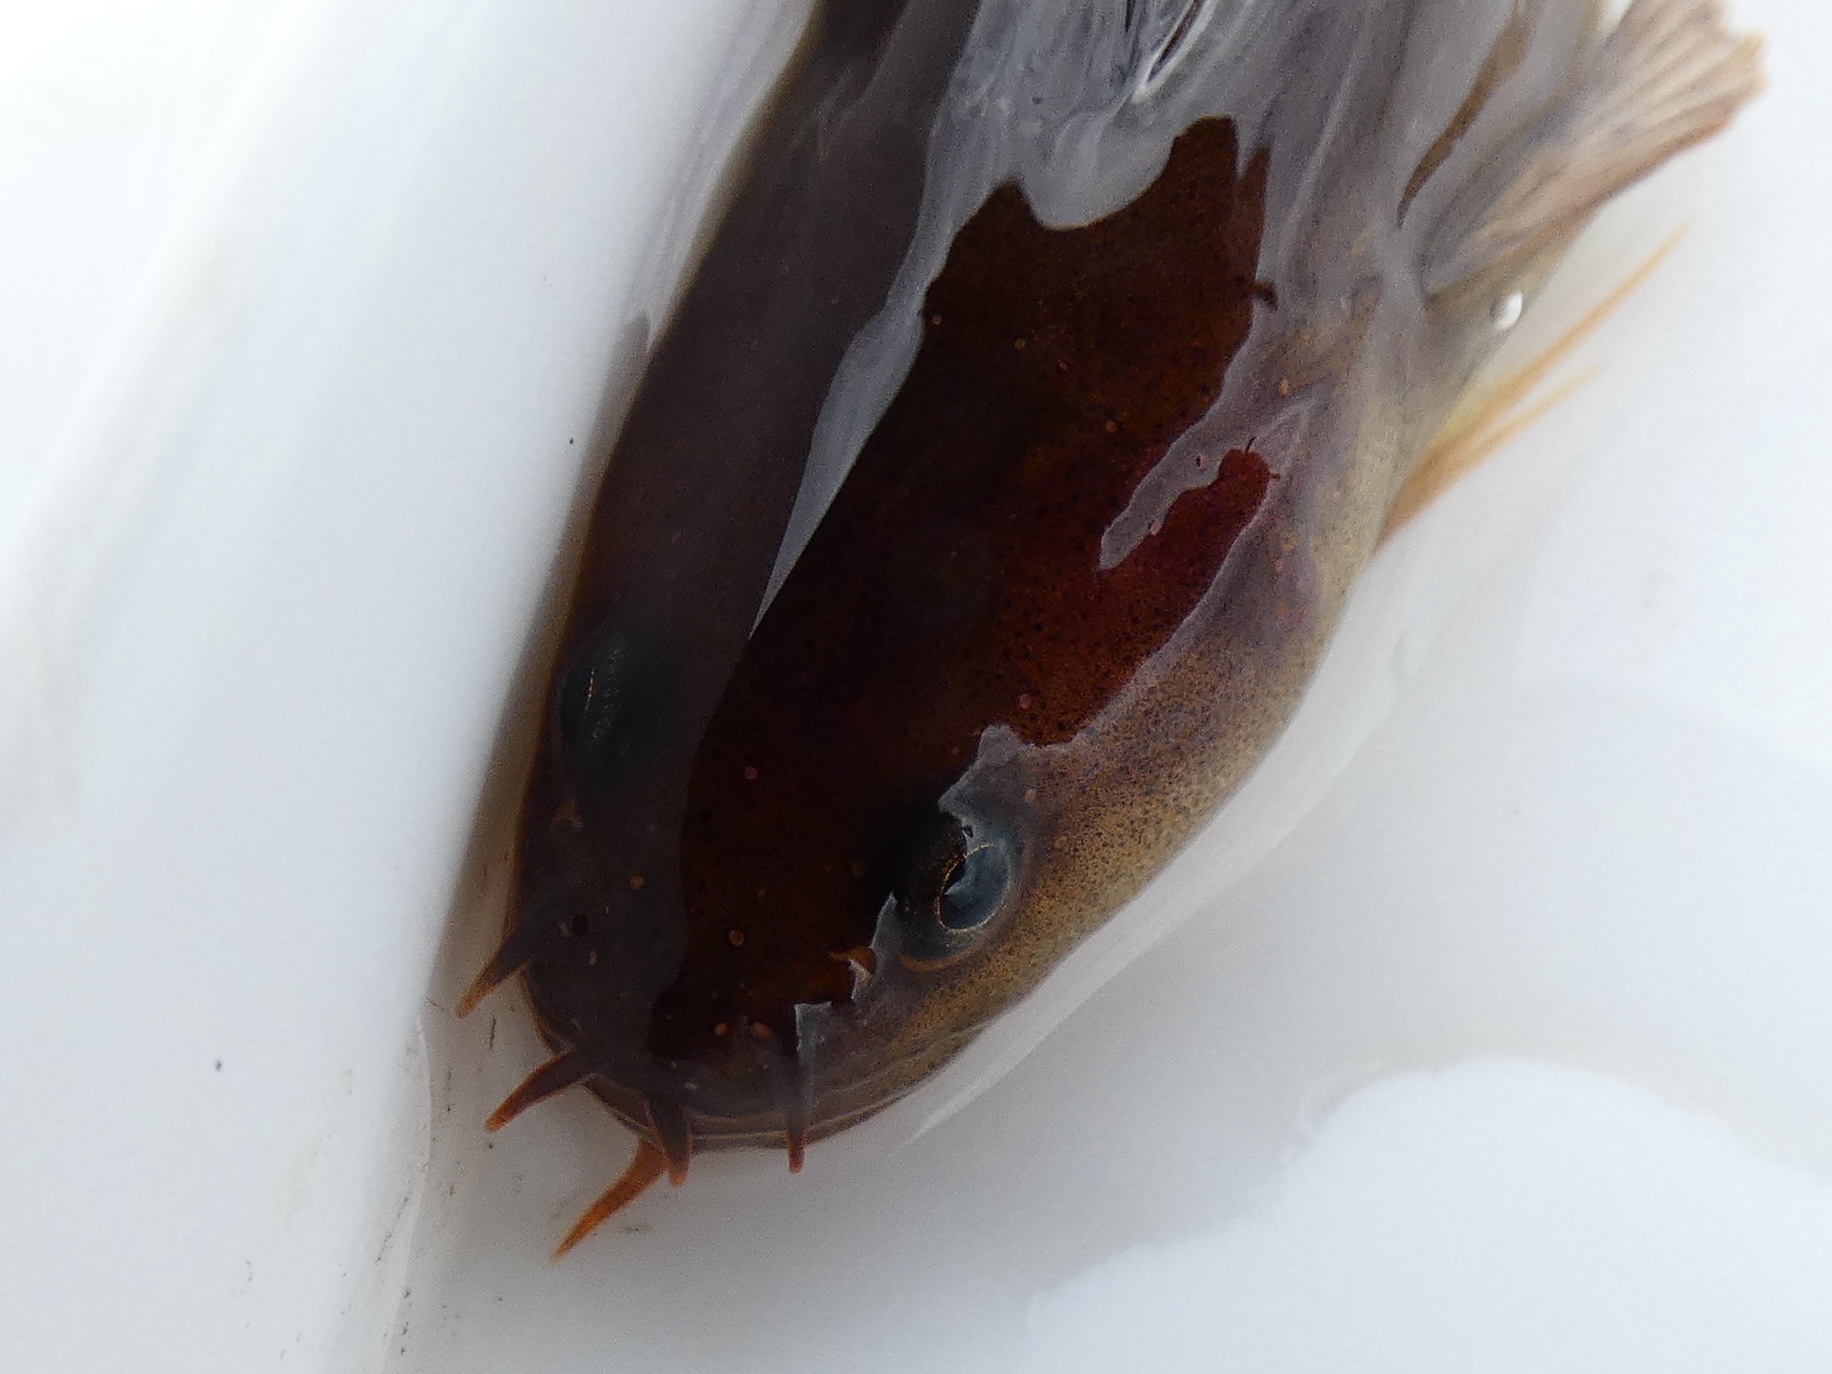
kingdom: Animalia
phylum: Chordata
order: Gadiformes
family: Lotidae
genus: Ciliata
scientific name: Ciliata mustela
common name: Five-bearded rockling
